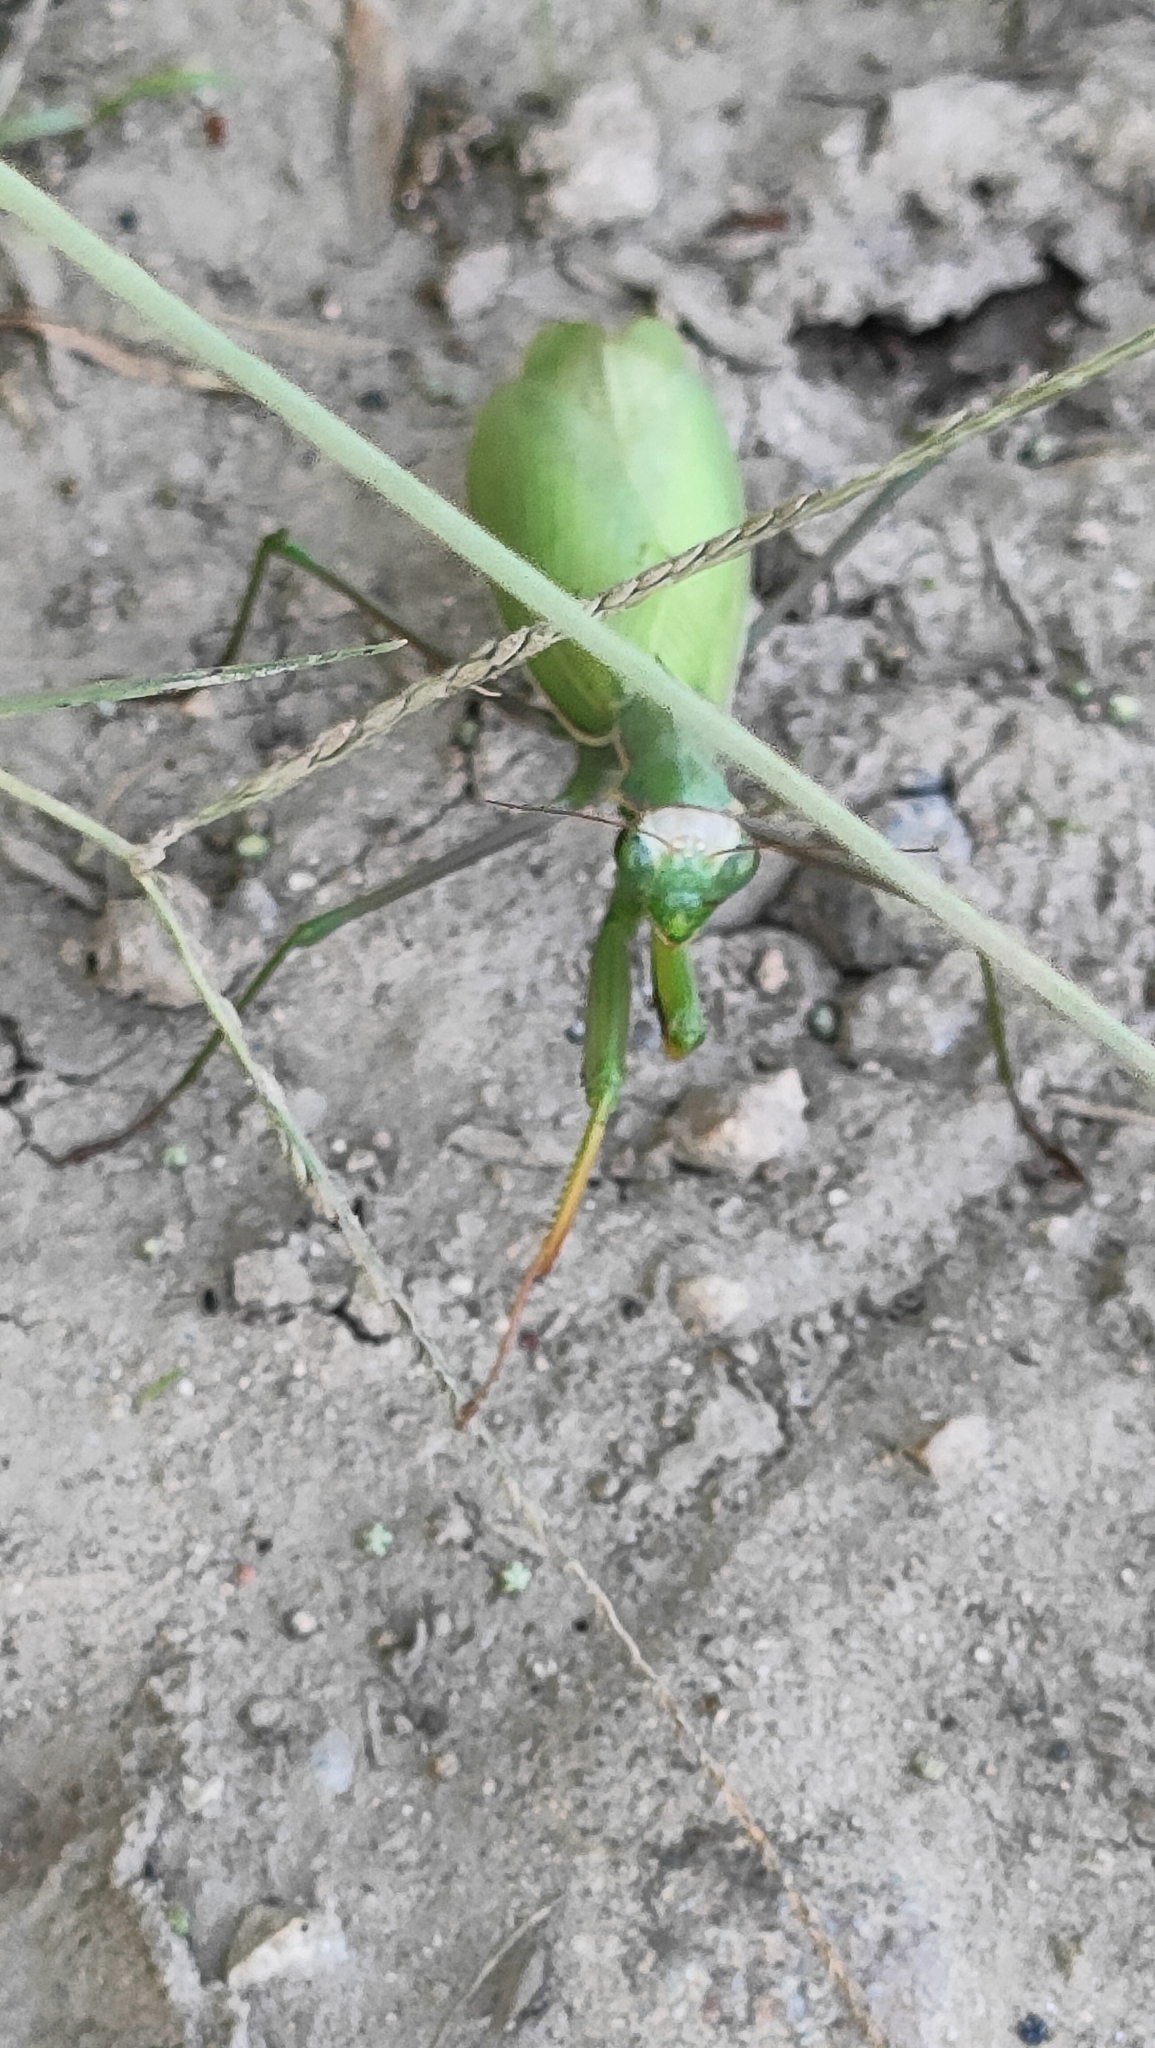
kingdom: Animalia
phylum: Arthropoda
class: Insecta
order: Mantodea
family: Mantidae
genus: Mantis
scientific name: Mantis religiosa
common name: Praying mantis
